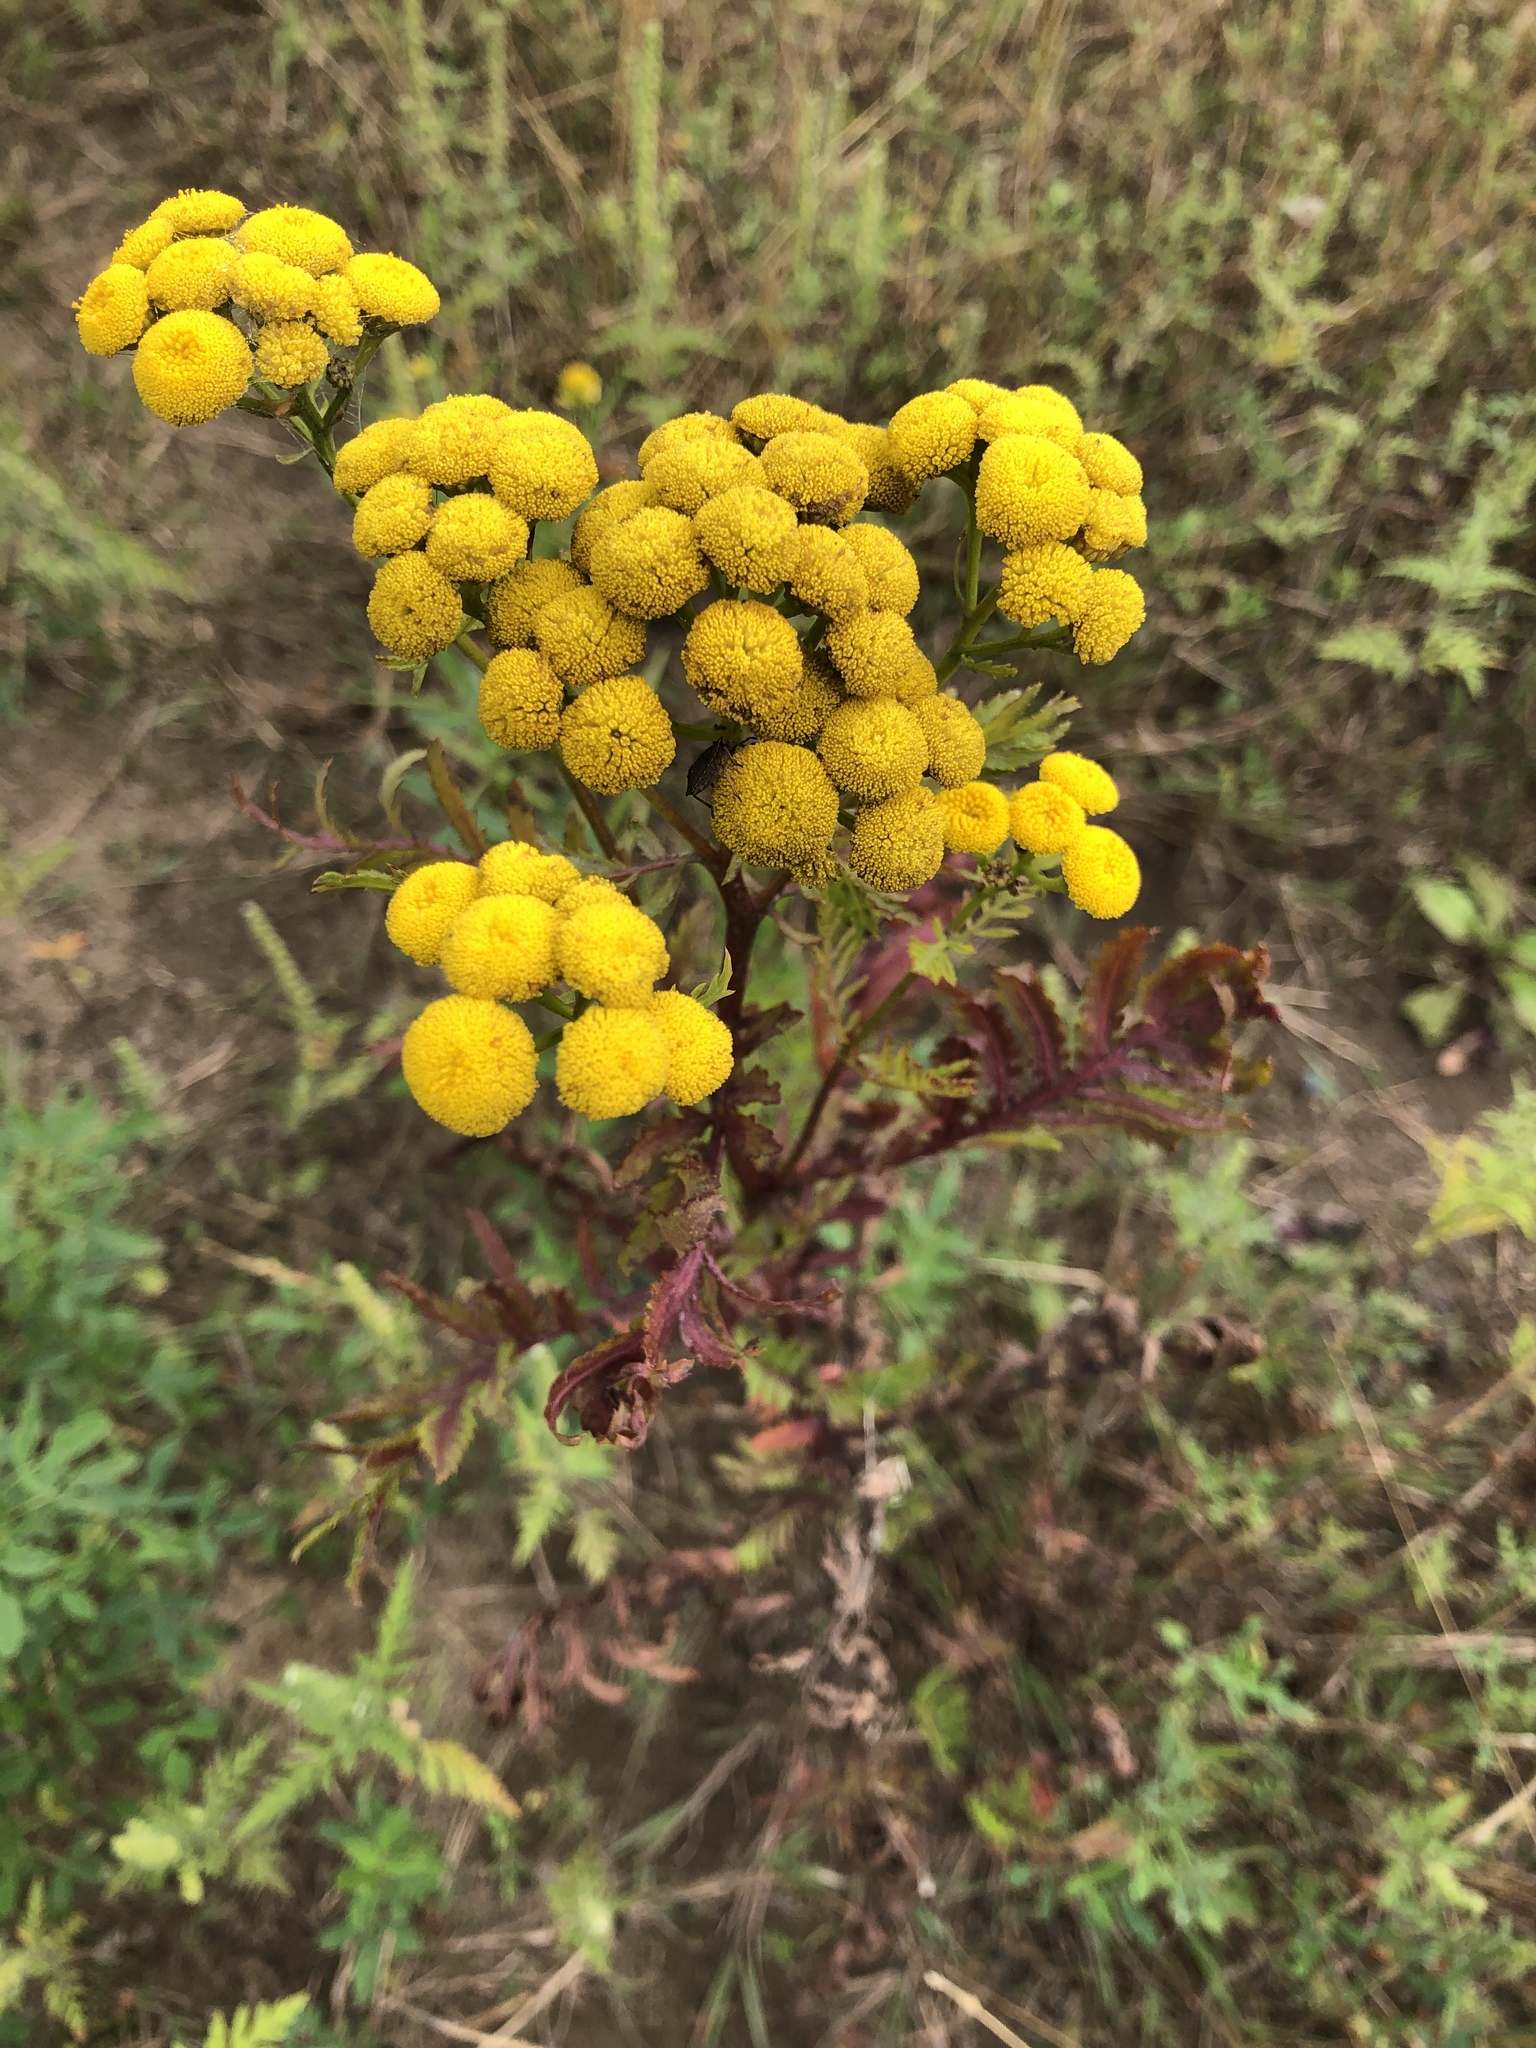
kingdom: Plantae
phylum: Tracheophyta
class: Magnoliopsida
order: Asterales
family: Asteraceae
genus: Tanacetum
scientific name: Tanacetum vulgare
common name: Common tansy
